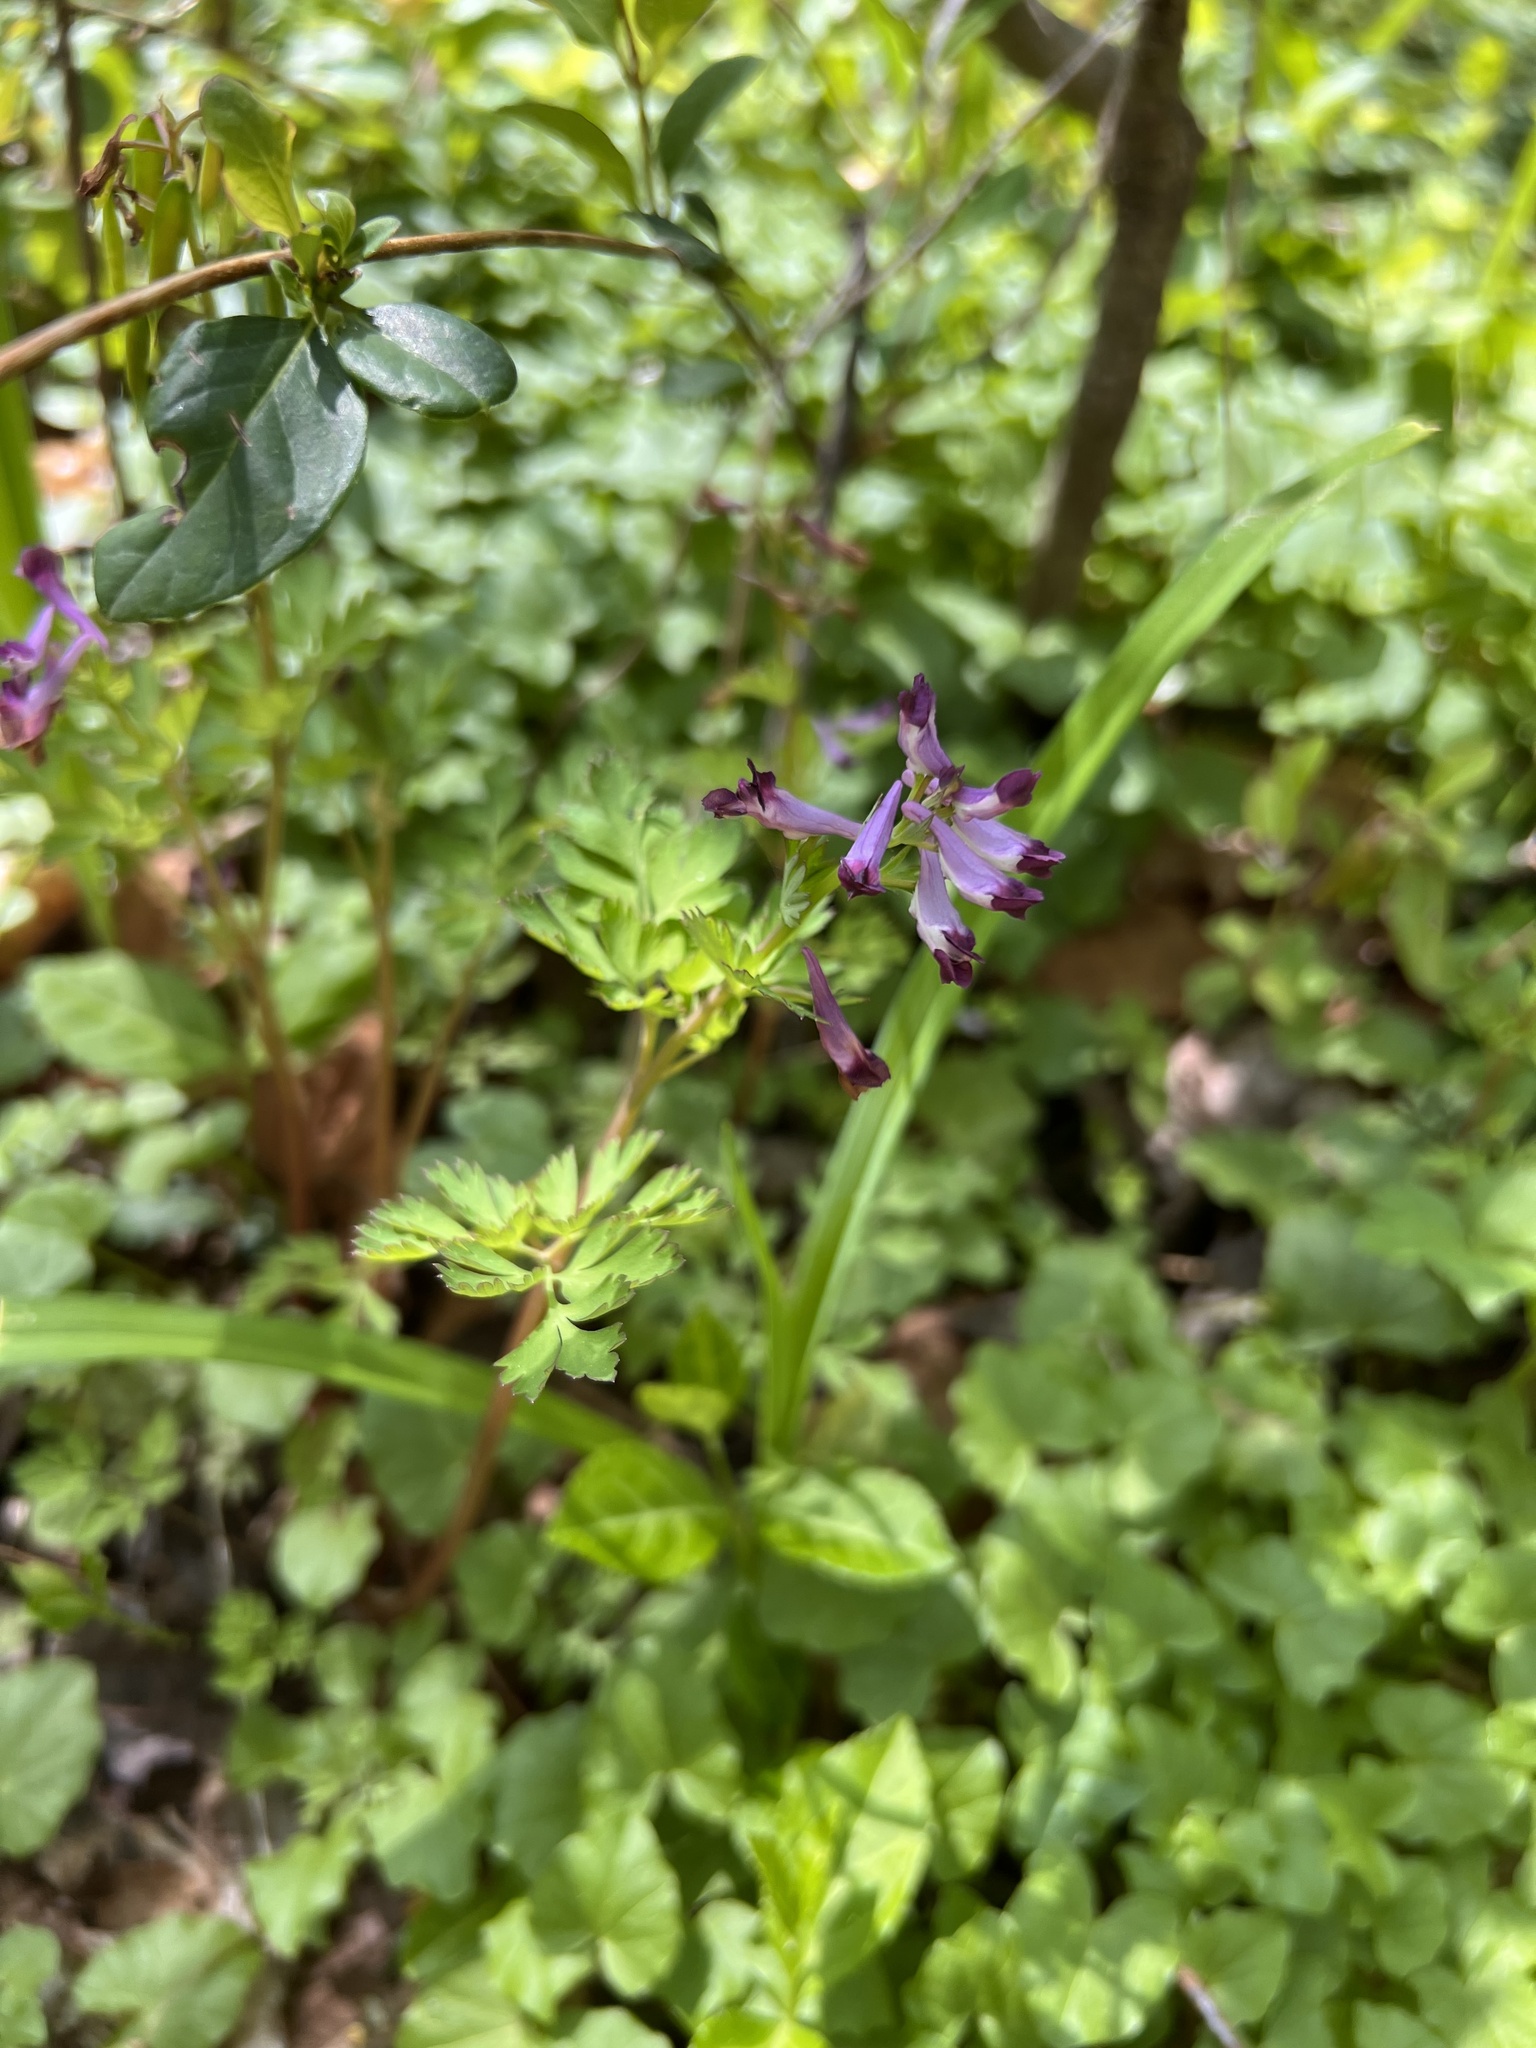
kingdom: Plantae
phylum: Tracheophyta
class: Magnoliopsida
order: Ranunculales
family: Papaveraceae
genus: Corydalis
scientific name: Corydalis incisa
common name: Incised fumewort
